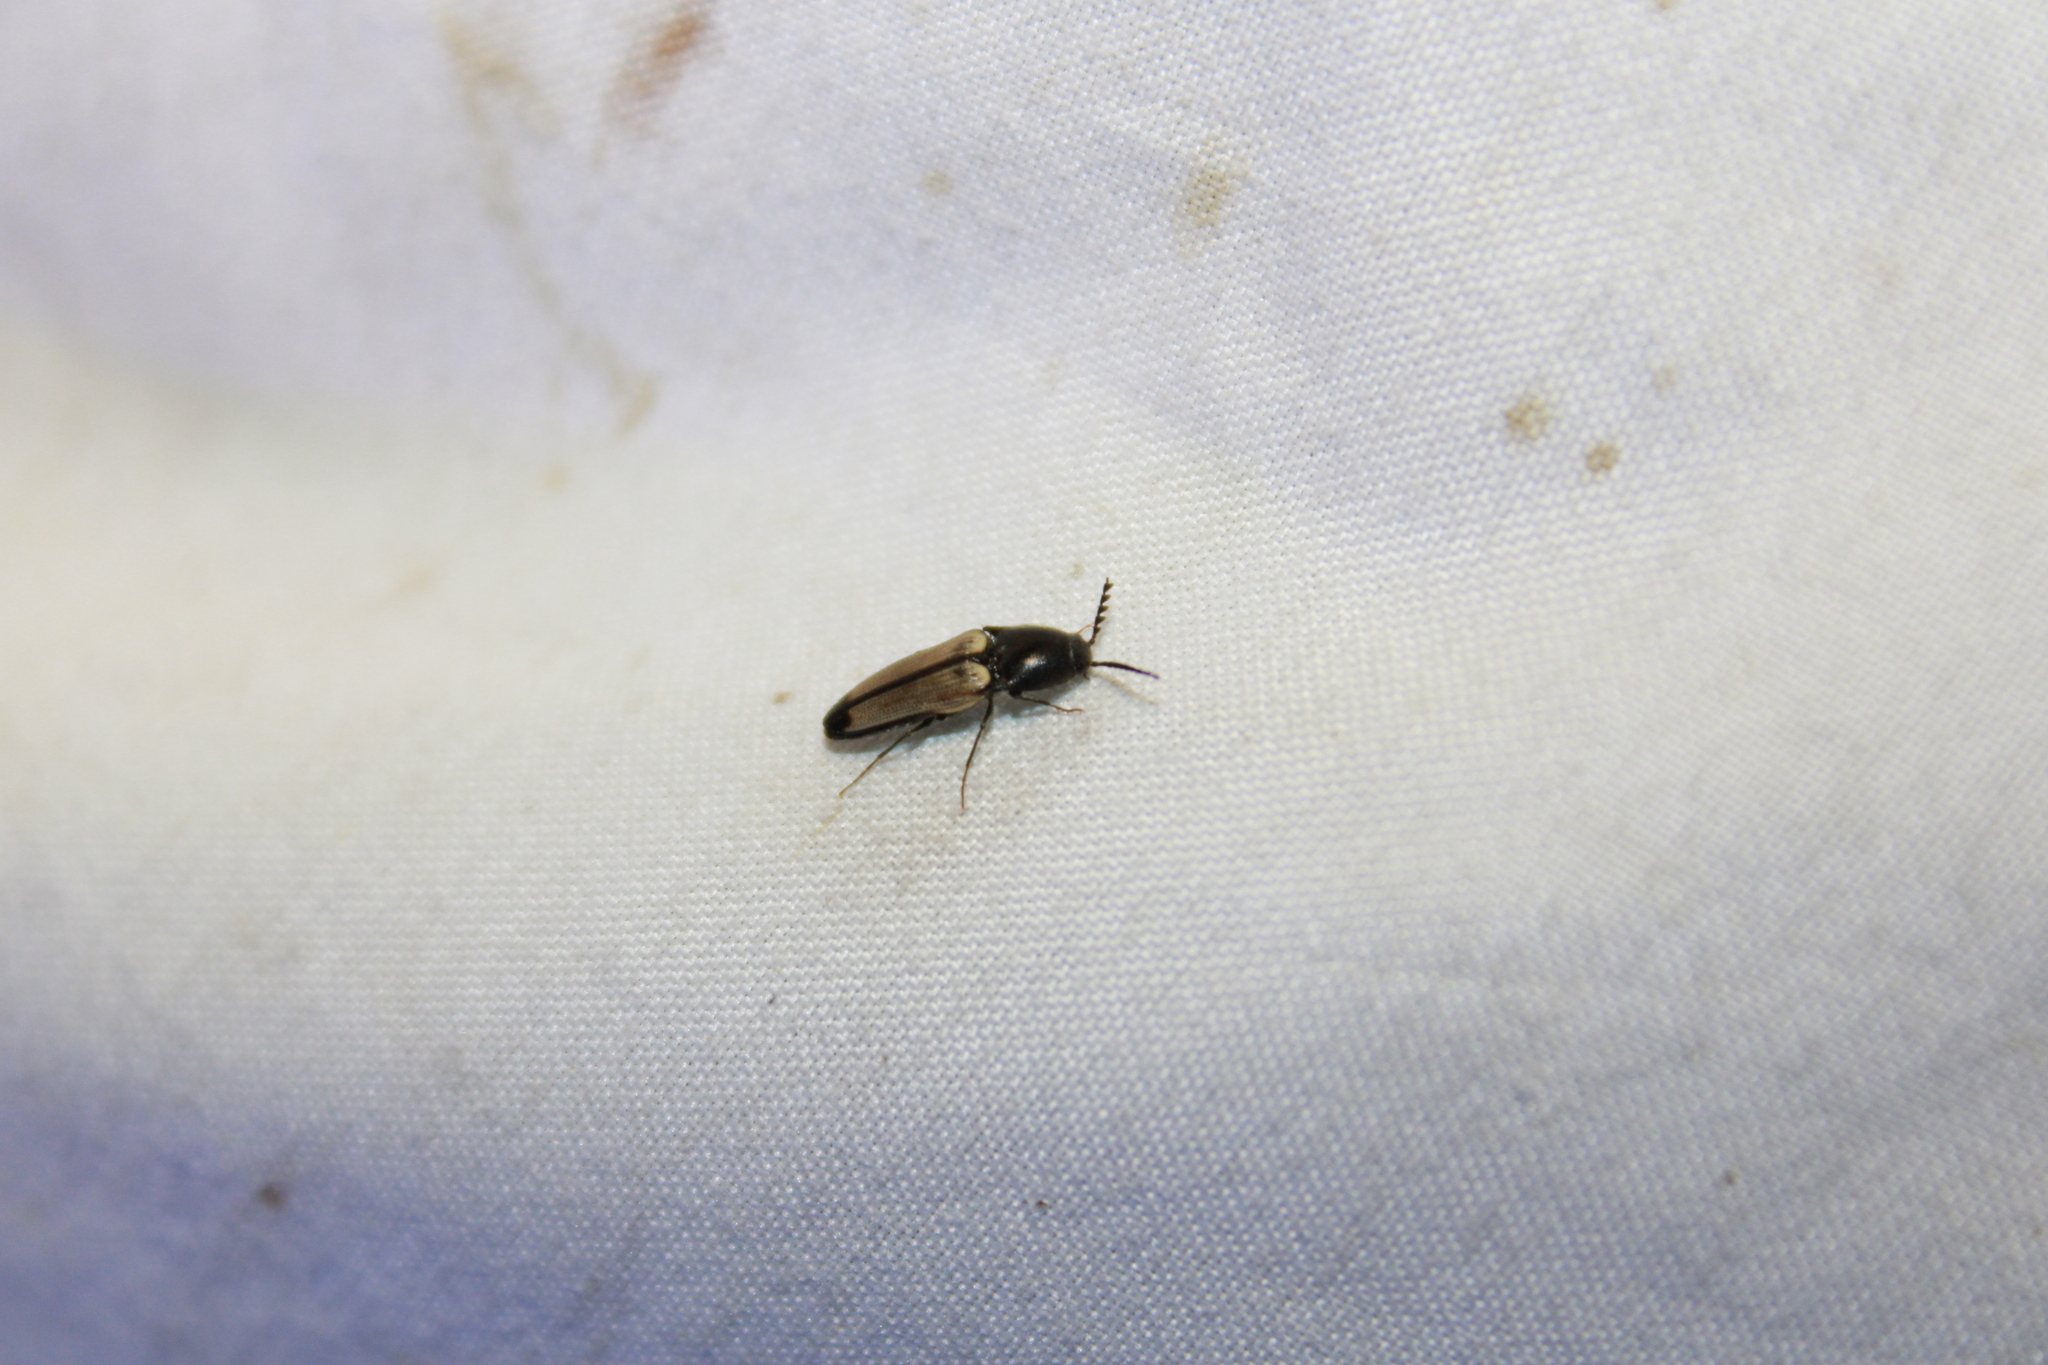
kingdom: Animalia
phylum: Arthropoda
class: Insecta
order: Coleoptera
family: Elateridae
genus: Ampedus
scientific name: Ampedus linteus
